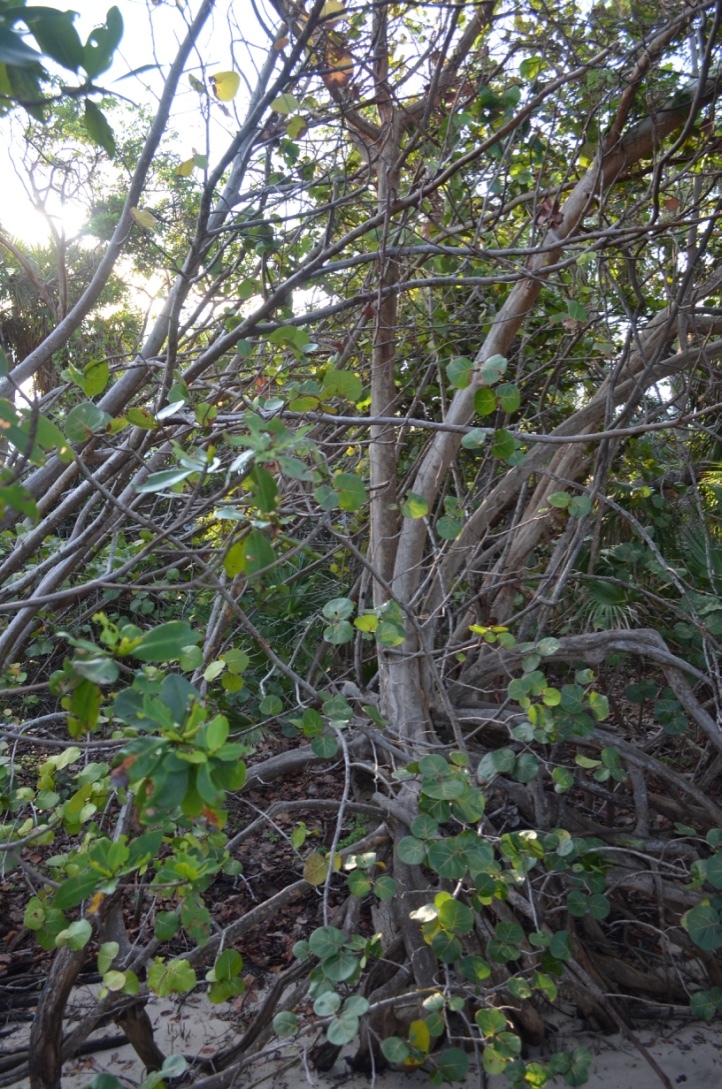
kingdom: Plantae
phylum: Tracheophyta
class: Magnoliopsida
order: Malpighiales
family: Rhizophoraceae
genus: Rhizophora
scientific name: Rhizophora mangle
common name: Red mangrove
